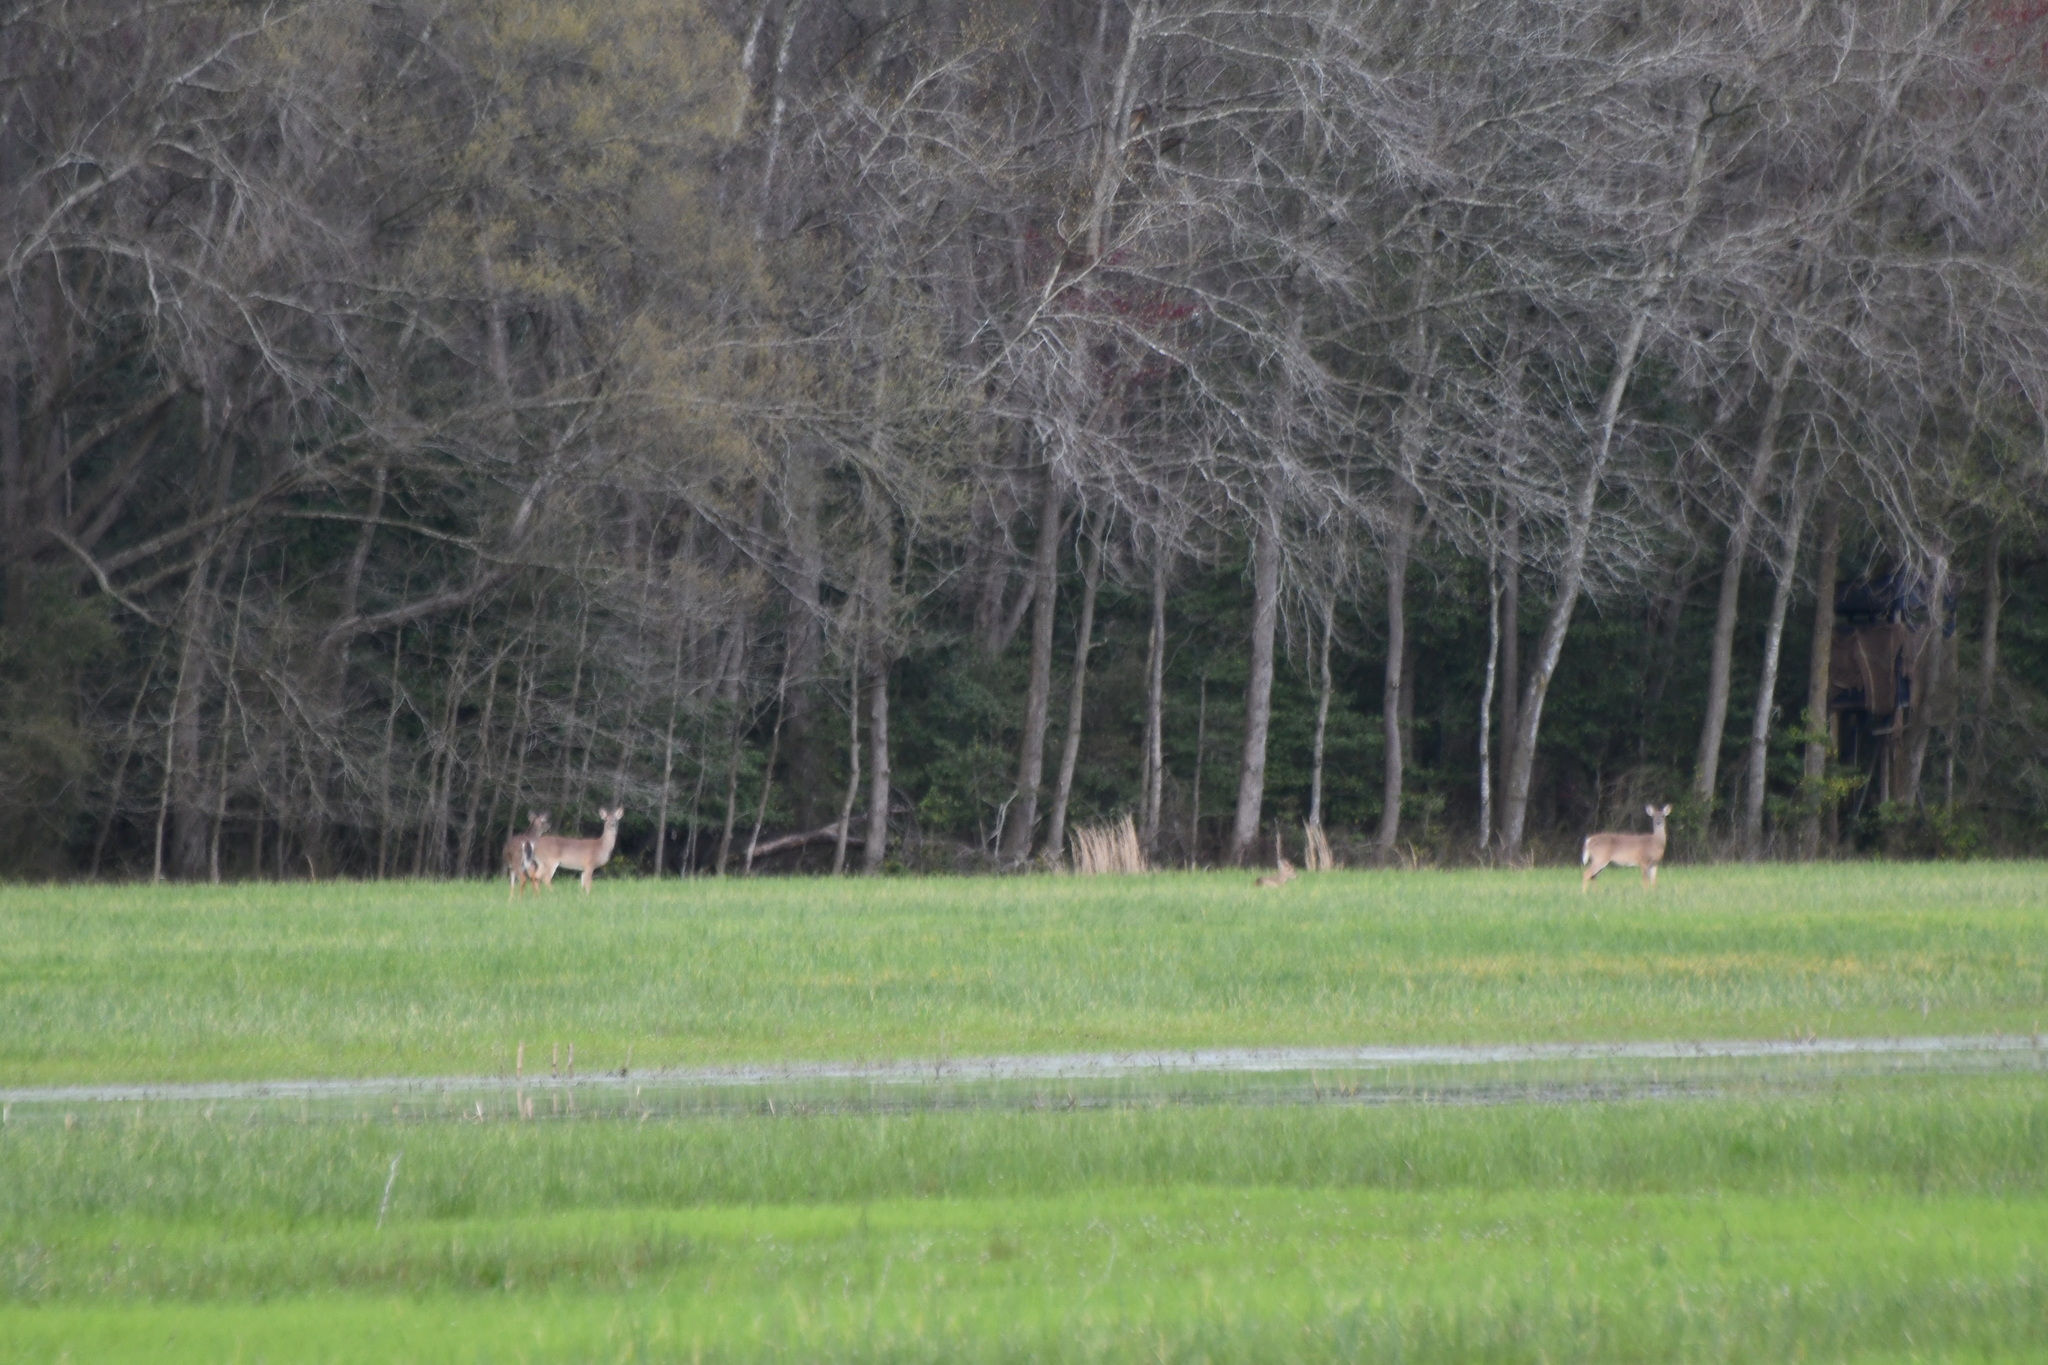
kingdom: Animalia
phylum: Chordata
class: Mammalia
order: Artiodactyla
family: Cervidae
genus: Odocoileus
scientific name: Odocoileus virginianus
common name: White-tailed deer
